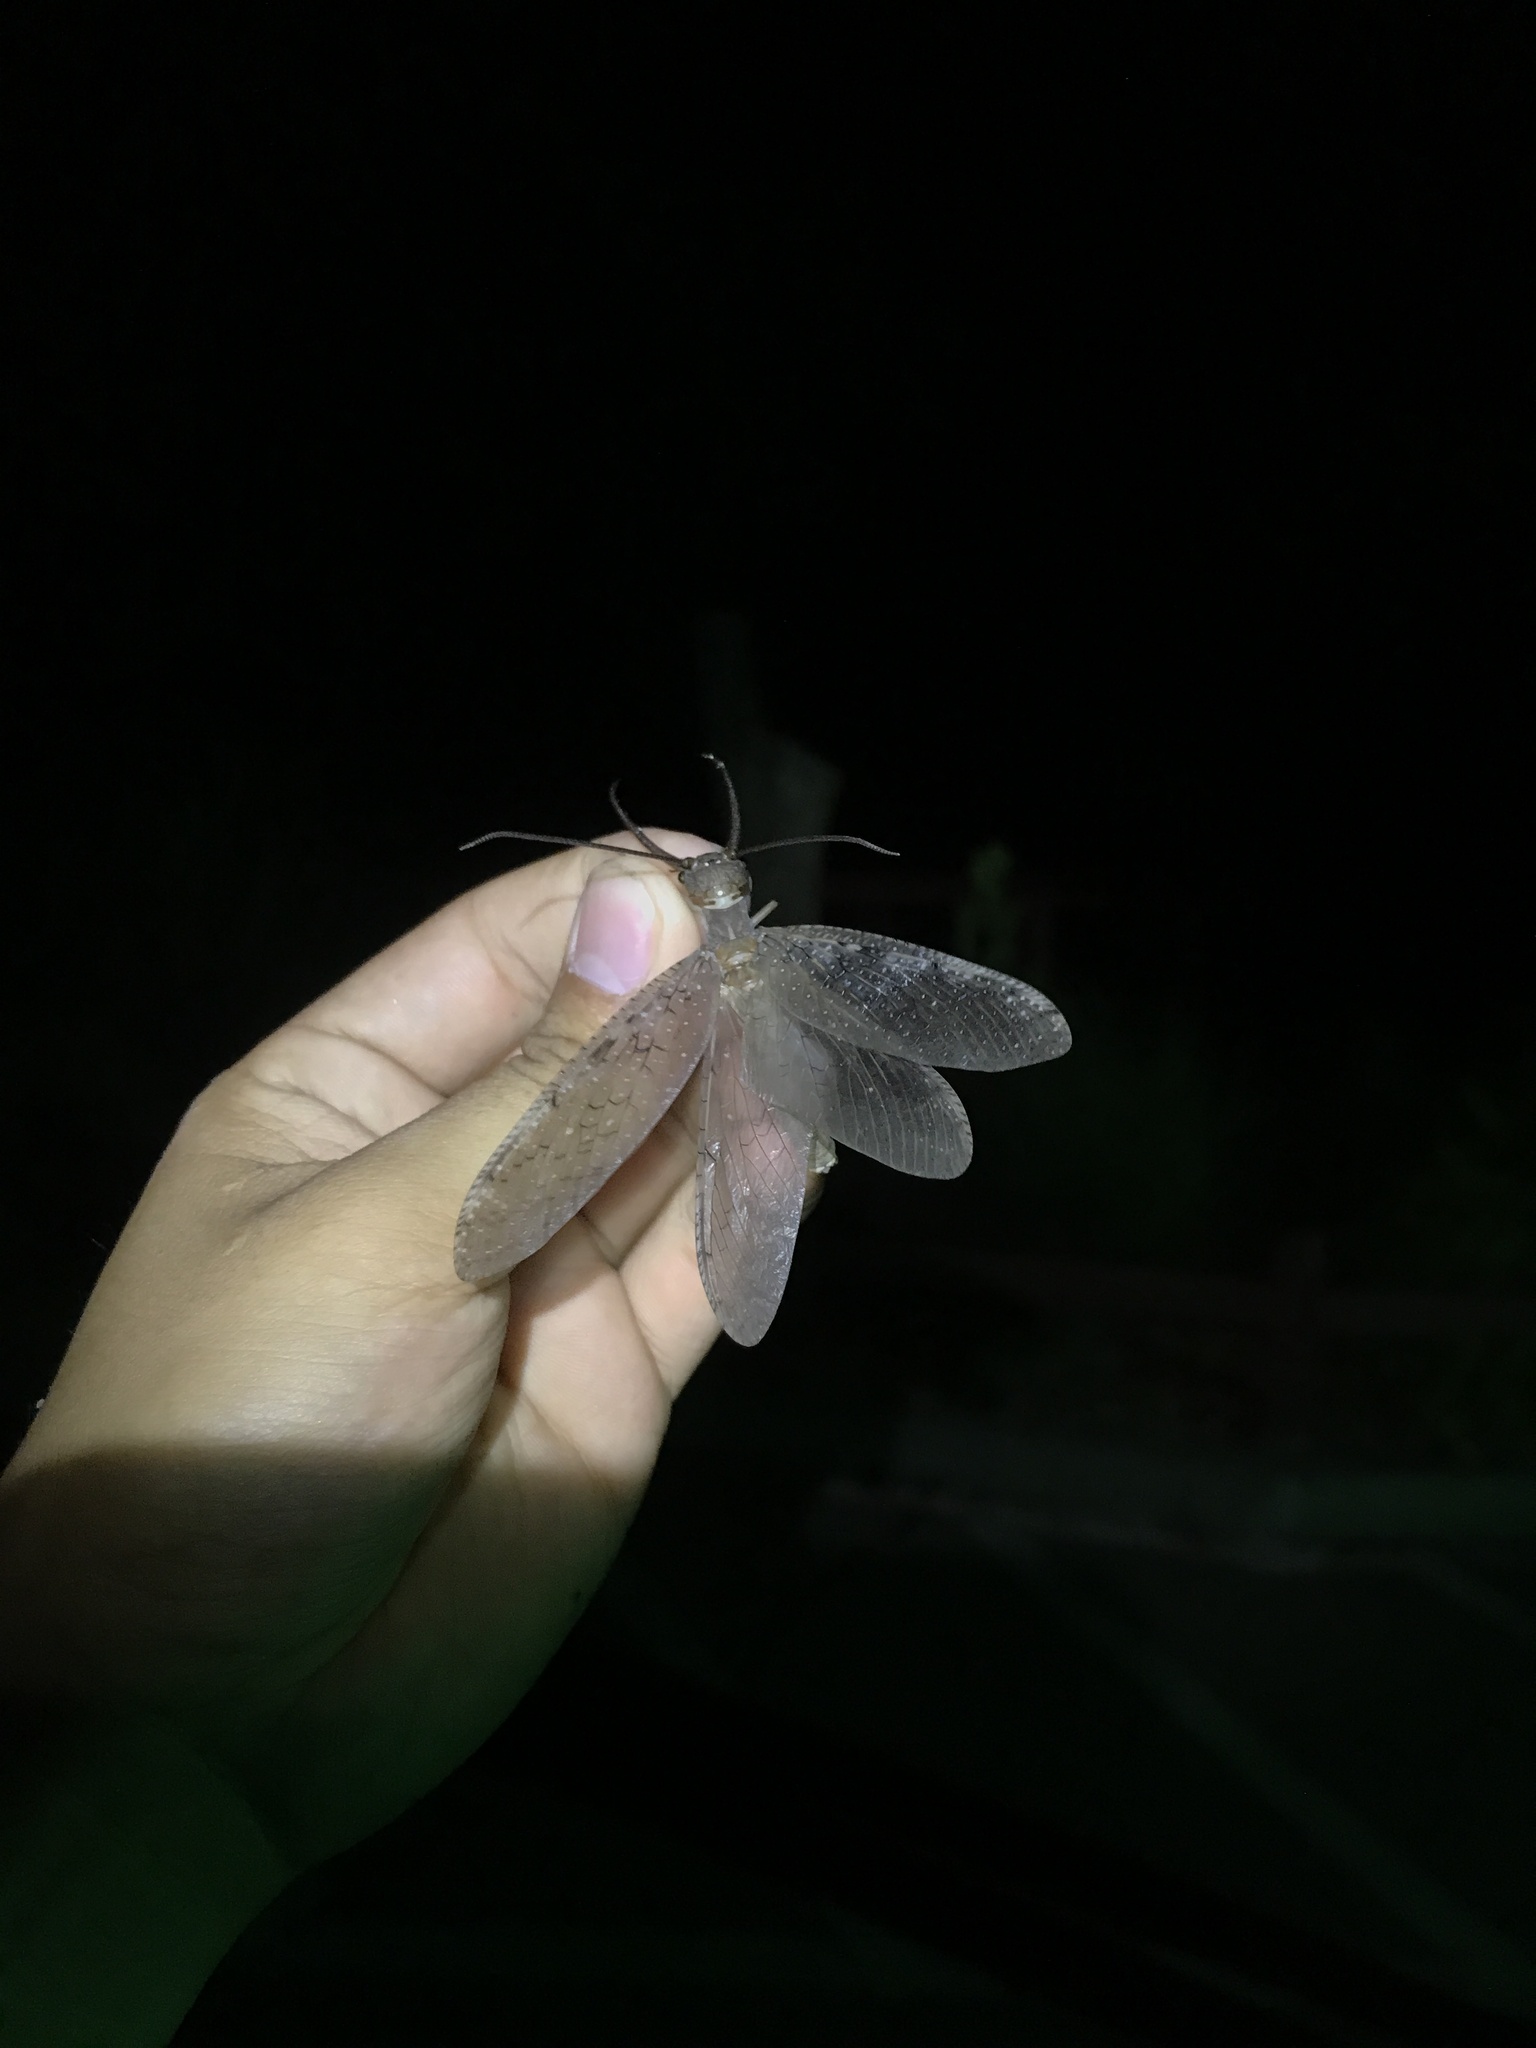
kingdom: Animalia
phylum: Arthropoda
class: Insecta
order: Megaloptera
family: Corydalidae
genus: Corydalus
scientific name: Corydalus cornutus
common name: Dobsonfly
